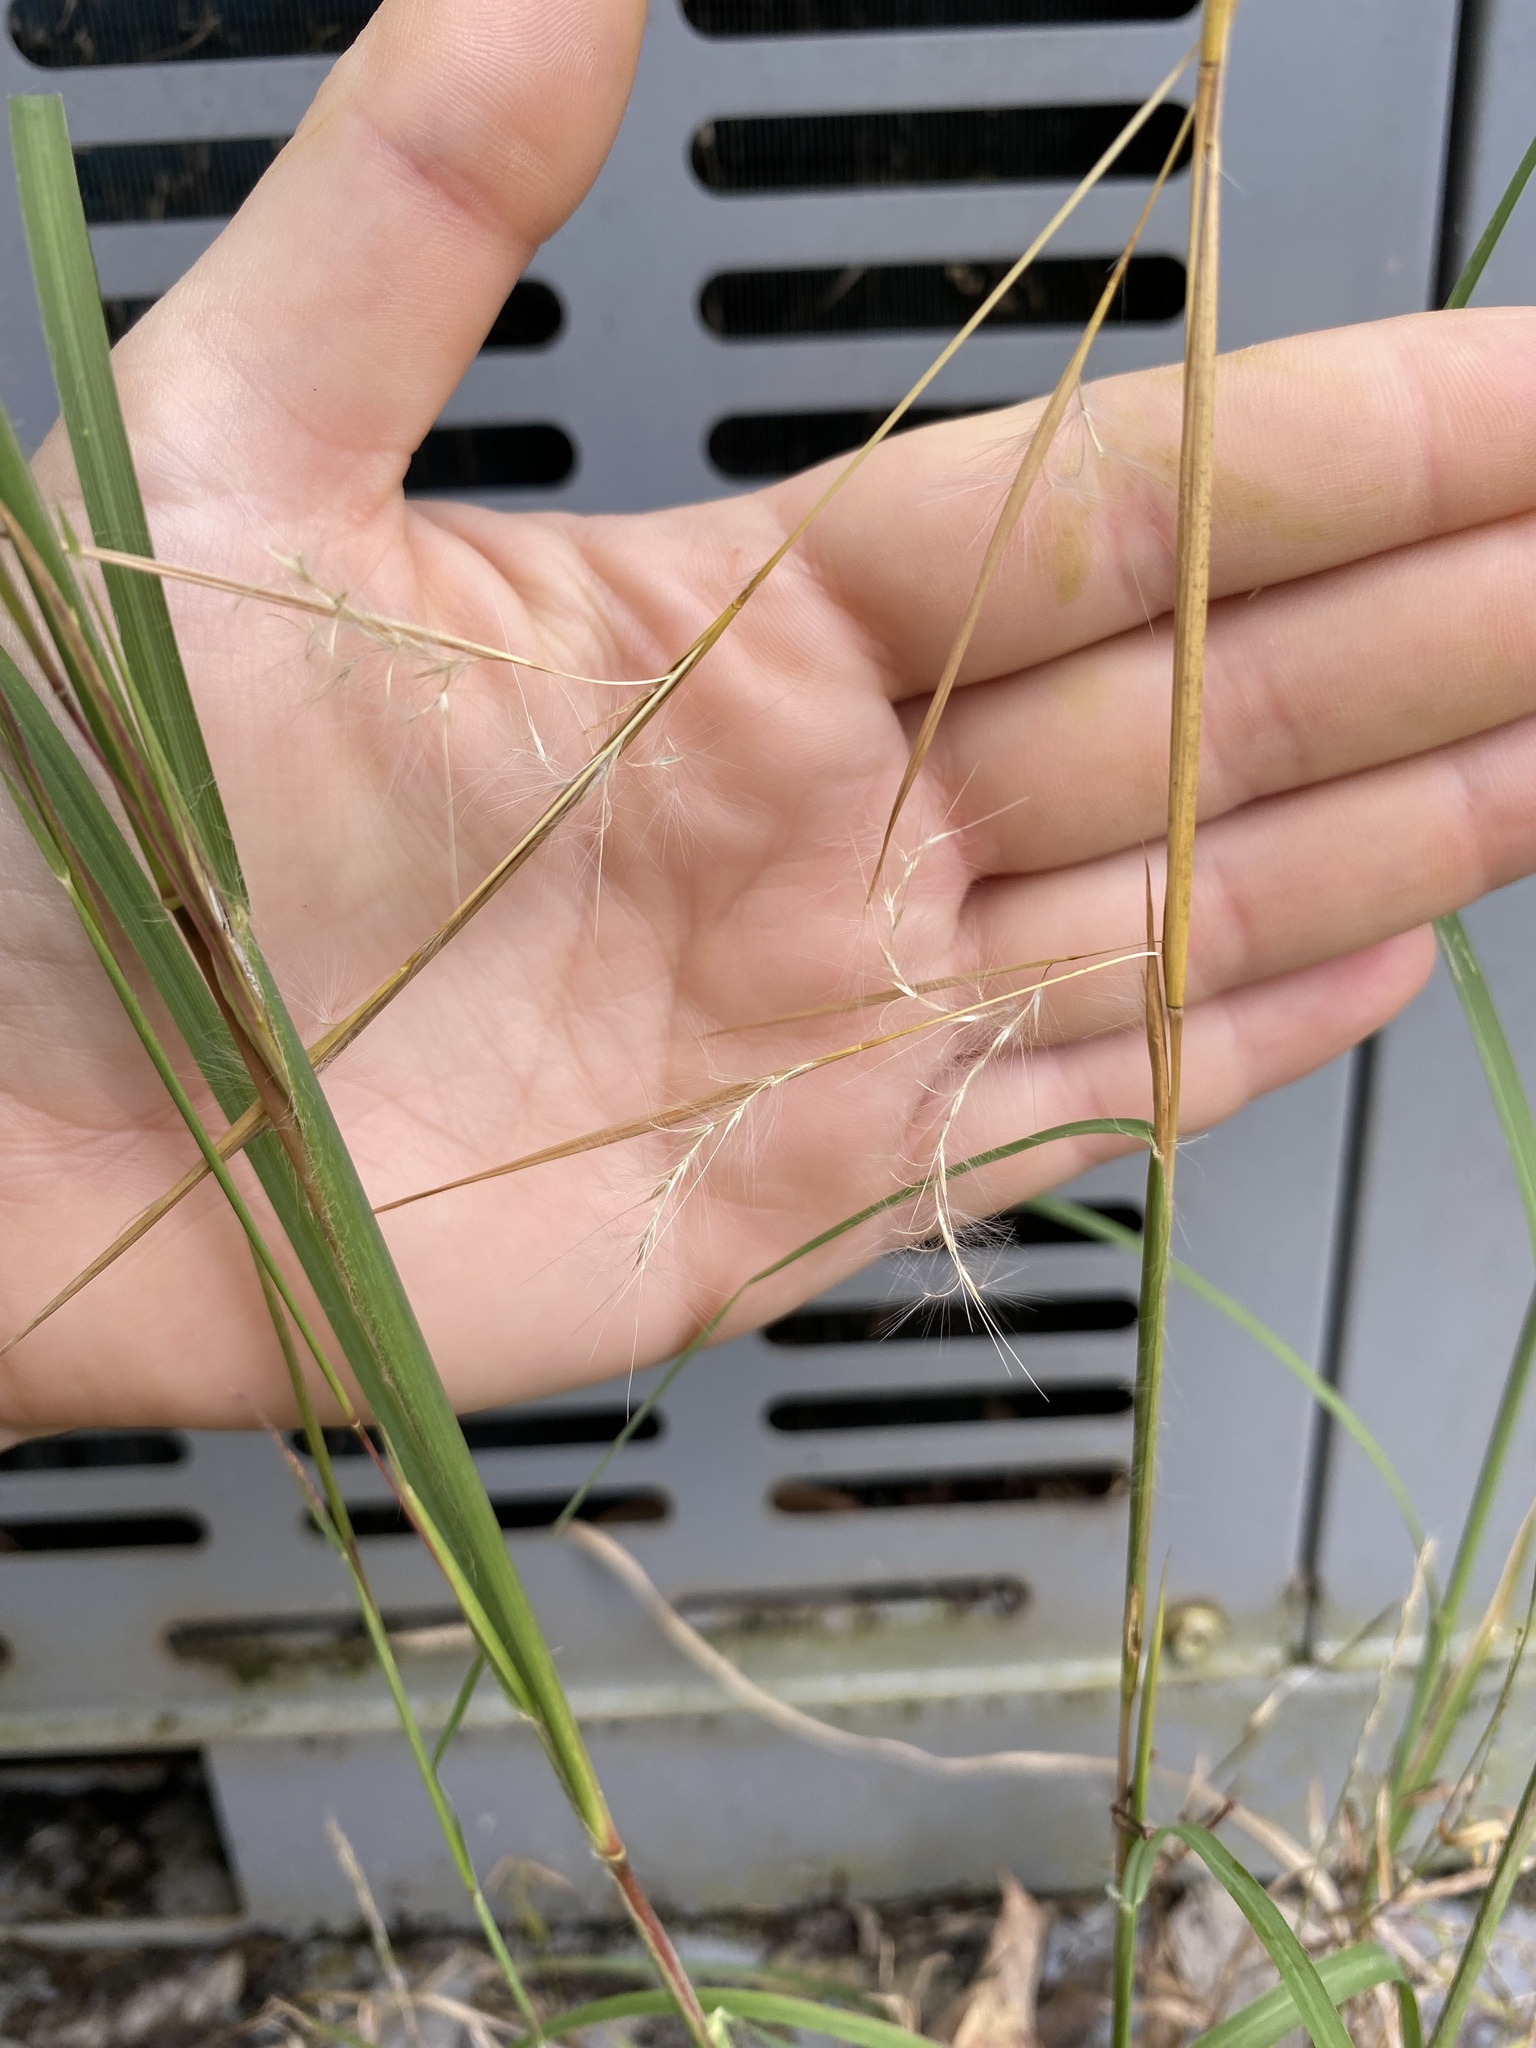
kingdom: Plantae
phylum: Tracheophyta
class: Liliopsida
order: Poales
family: Poaceae
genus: Schizachyrium
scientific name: Schizachyrium scoparium
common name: Little bluestem
